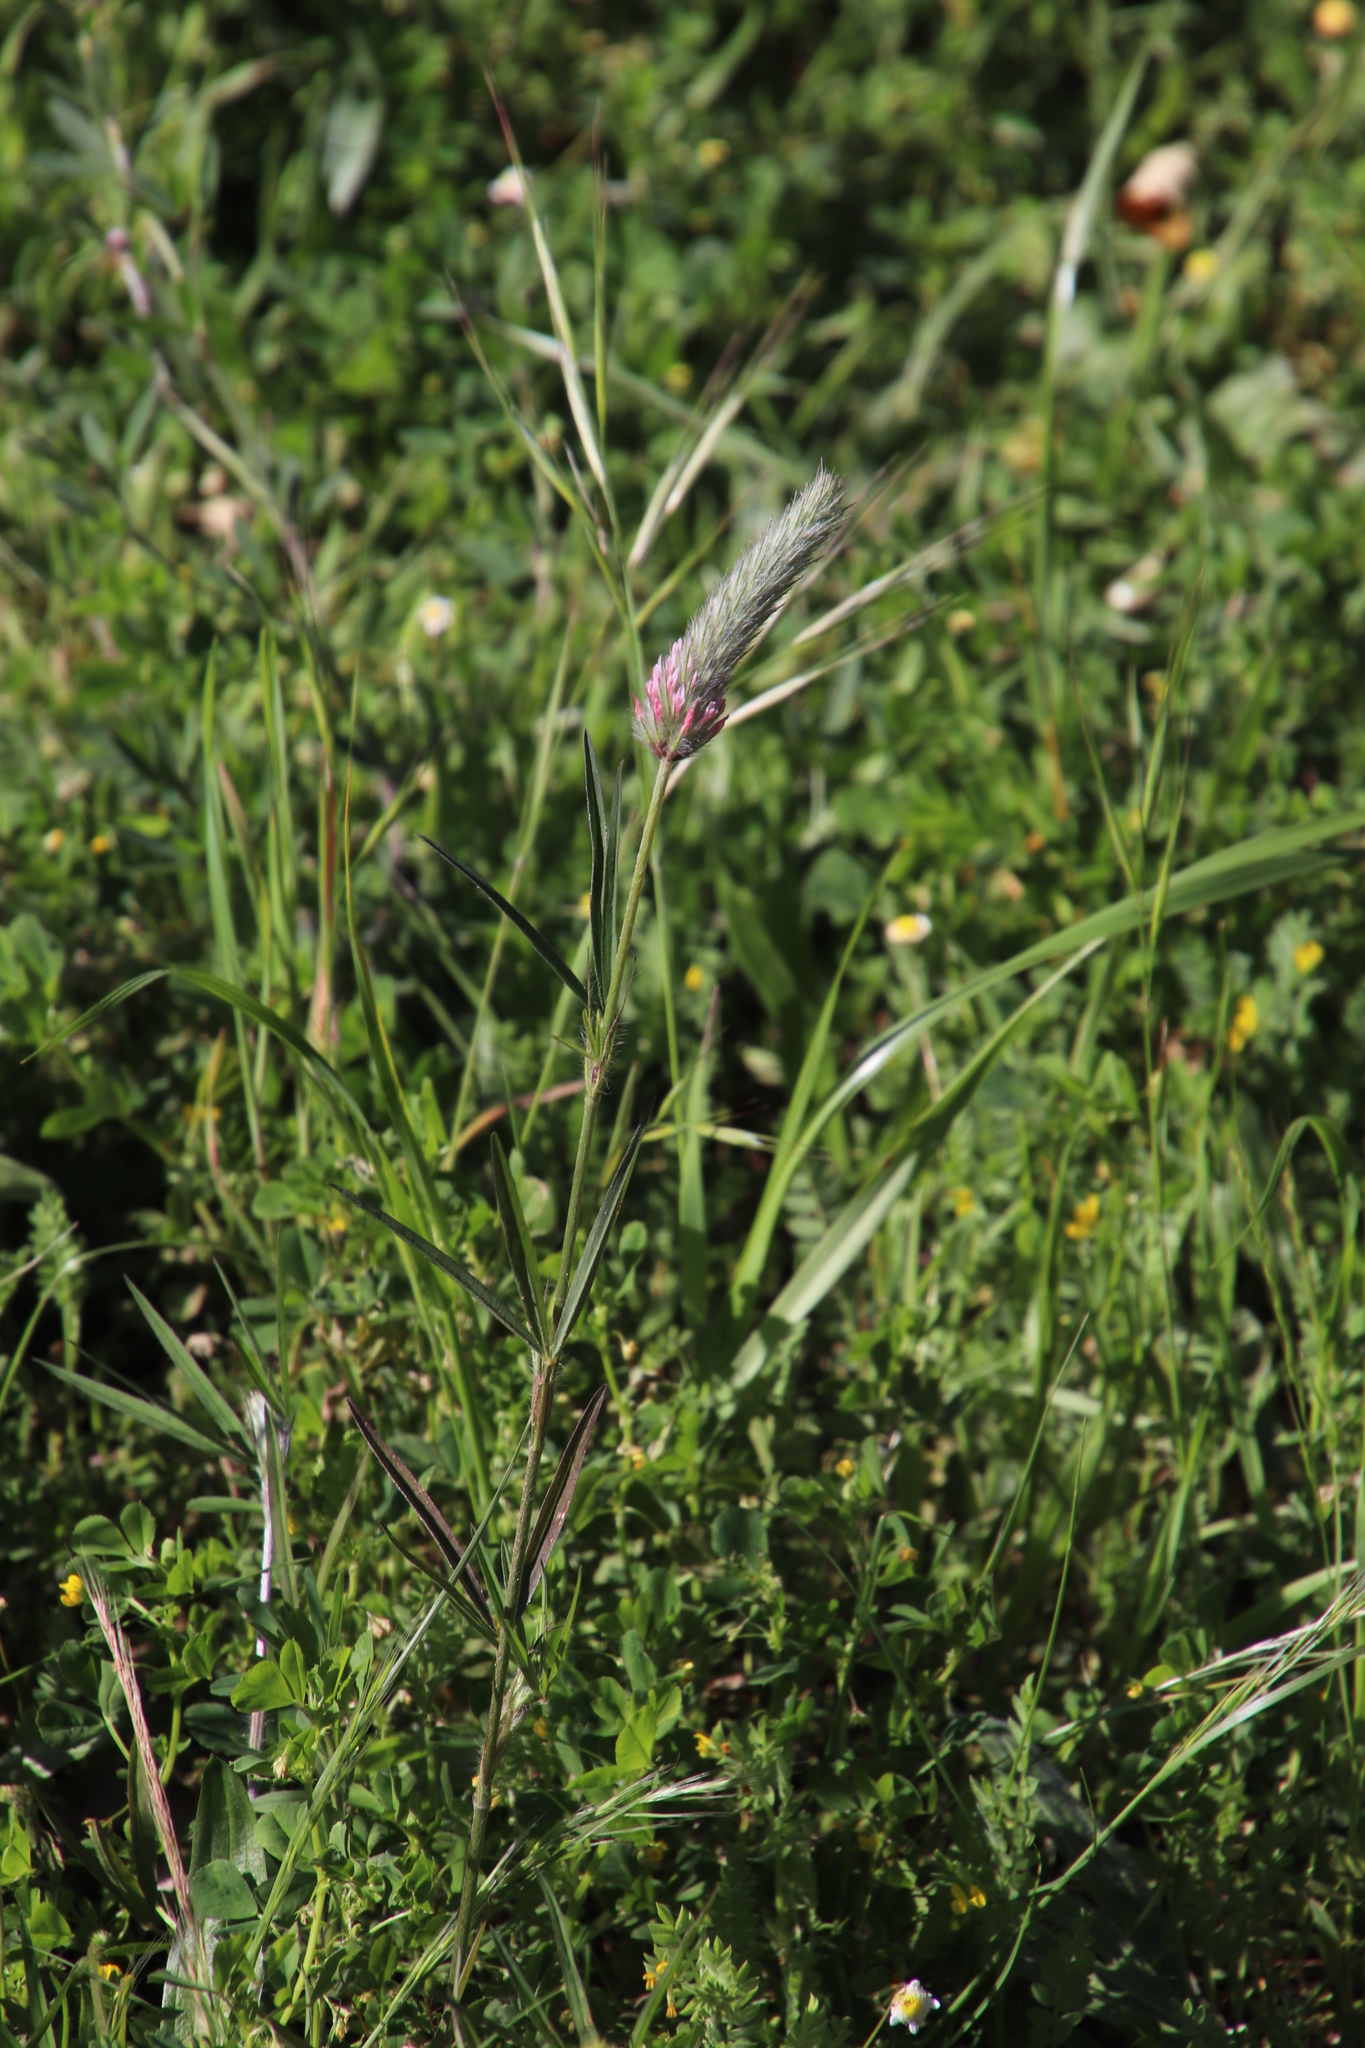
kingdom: Plantae
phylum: Tracheophyta
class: Magnoliopsida
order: Fabales
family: Fabaceae
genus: Trifolium
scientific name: Trifolium angustifolium
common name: Narrow clover
